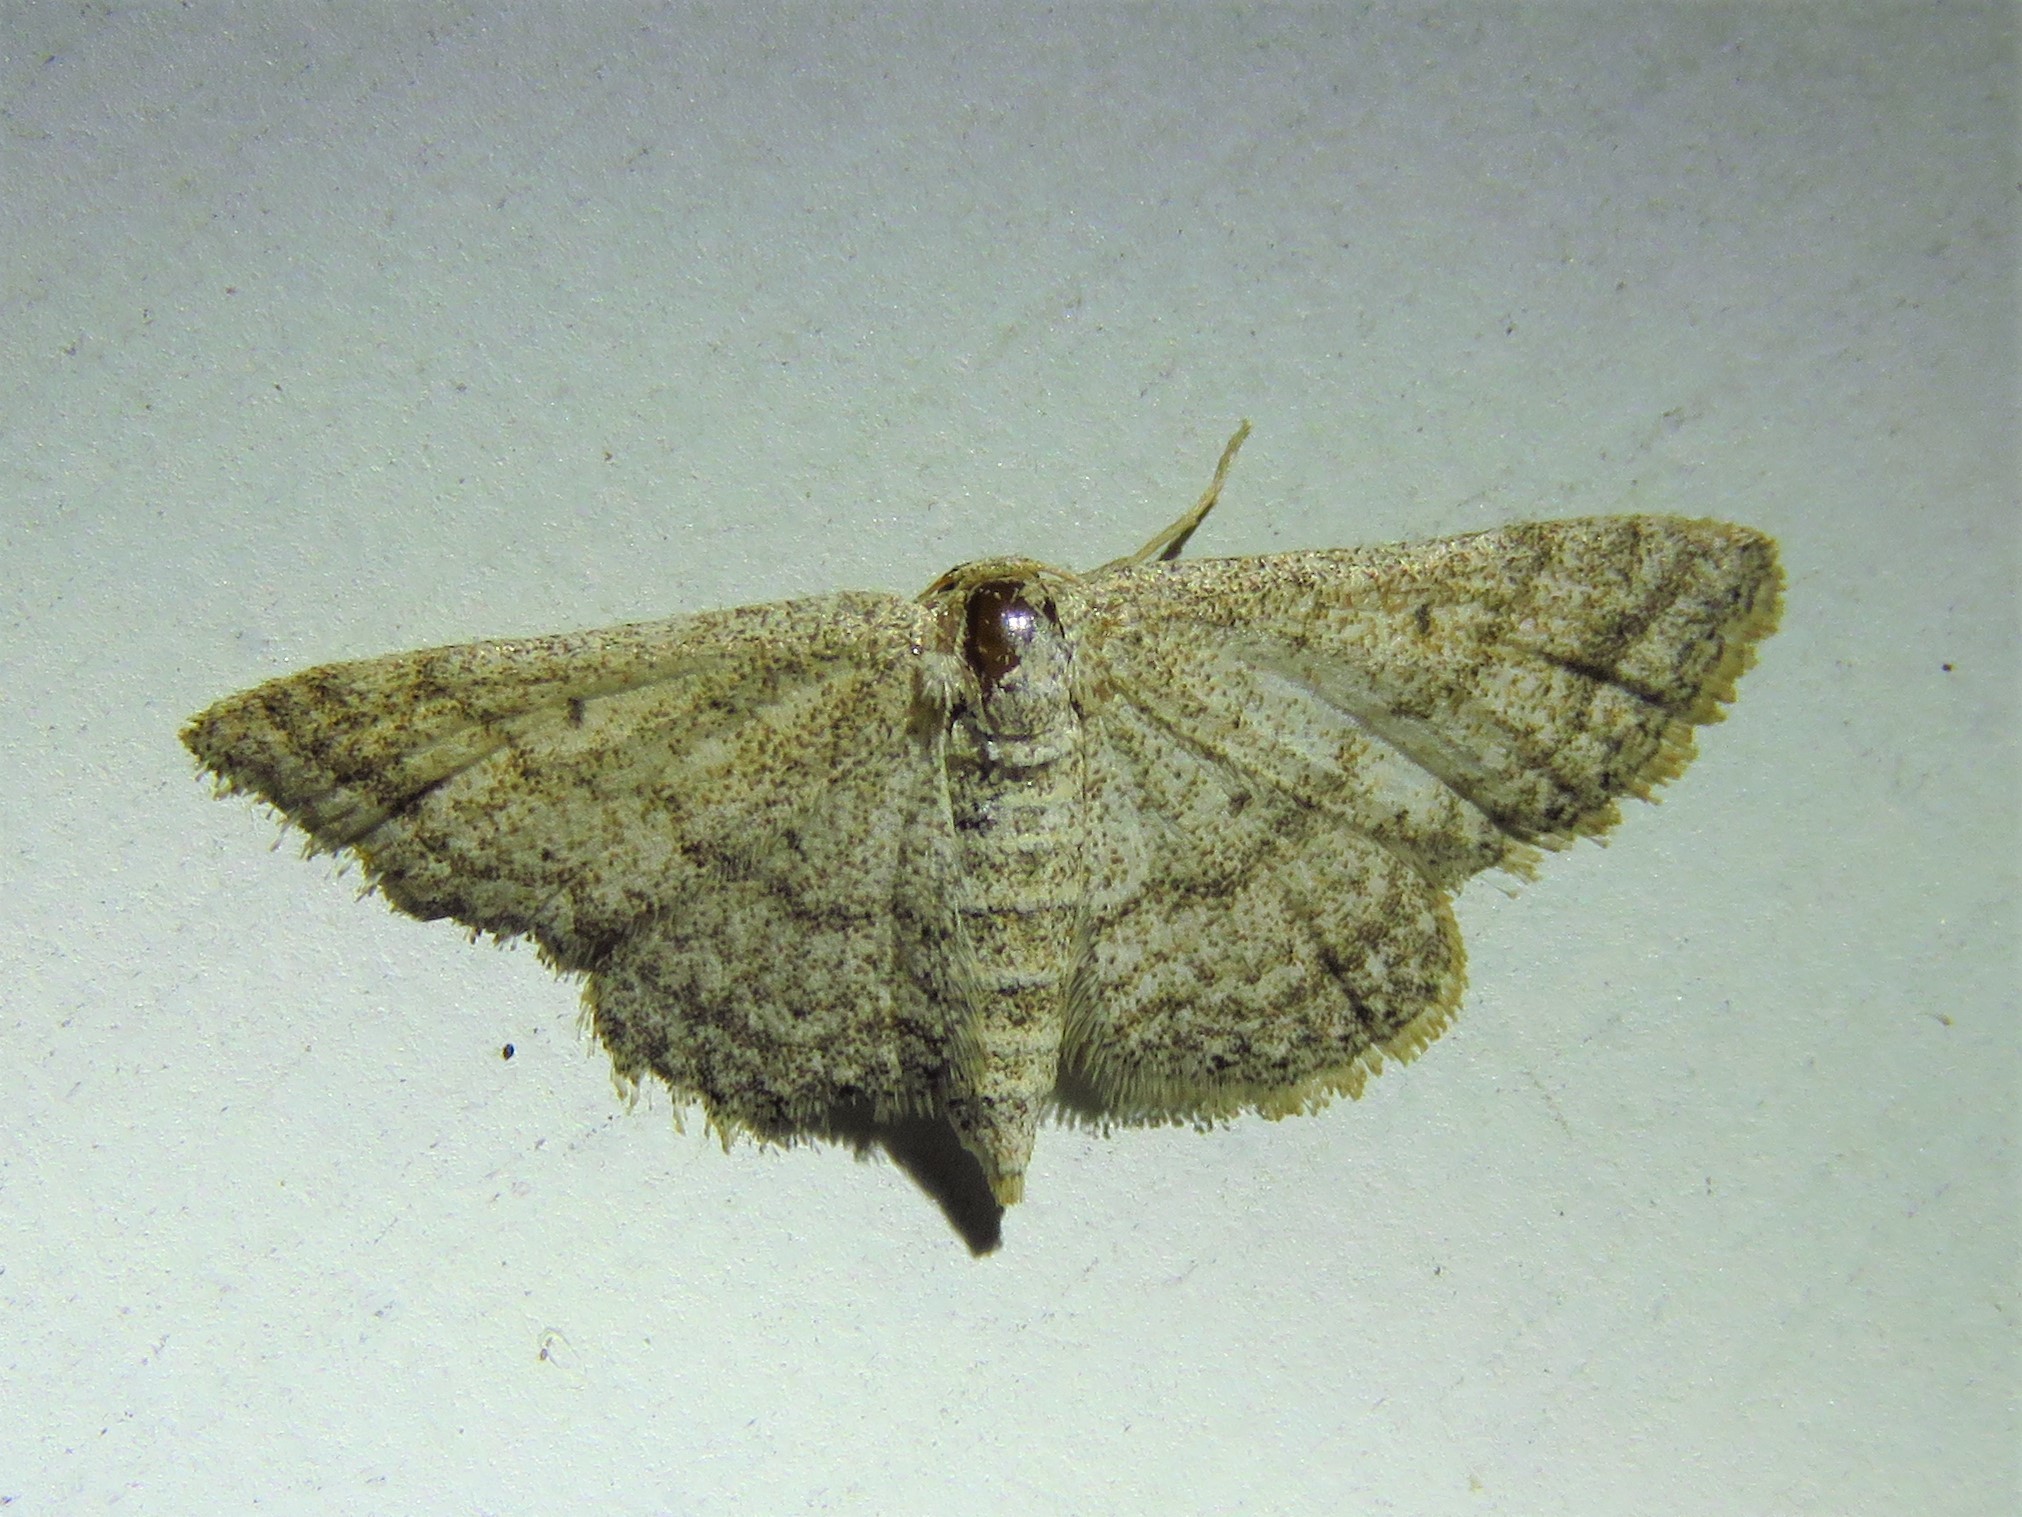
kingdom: Animalia
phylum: Arthropoda
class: Insecta
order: Lepidoptera
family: Geometridae
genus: Lobocleta
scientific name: Lobocleta ossularia
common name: Drab brown wave
